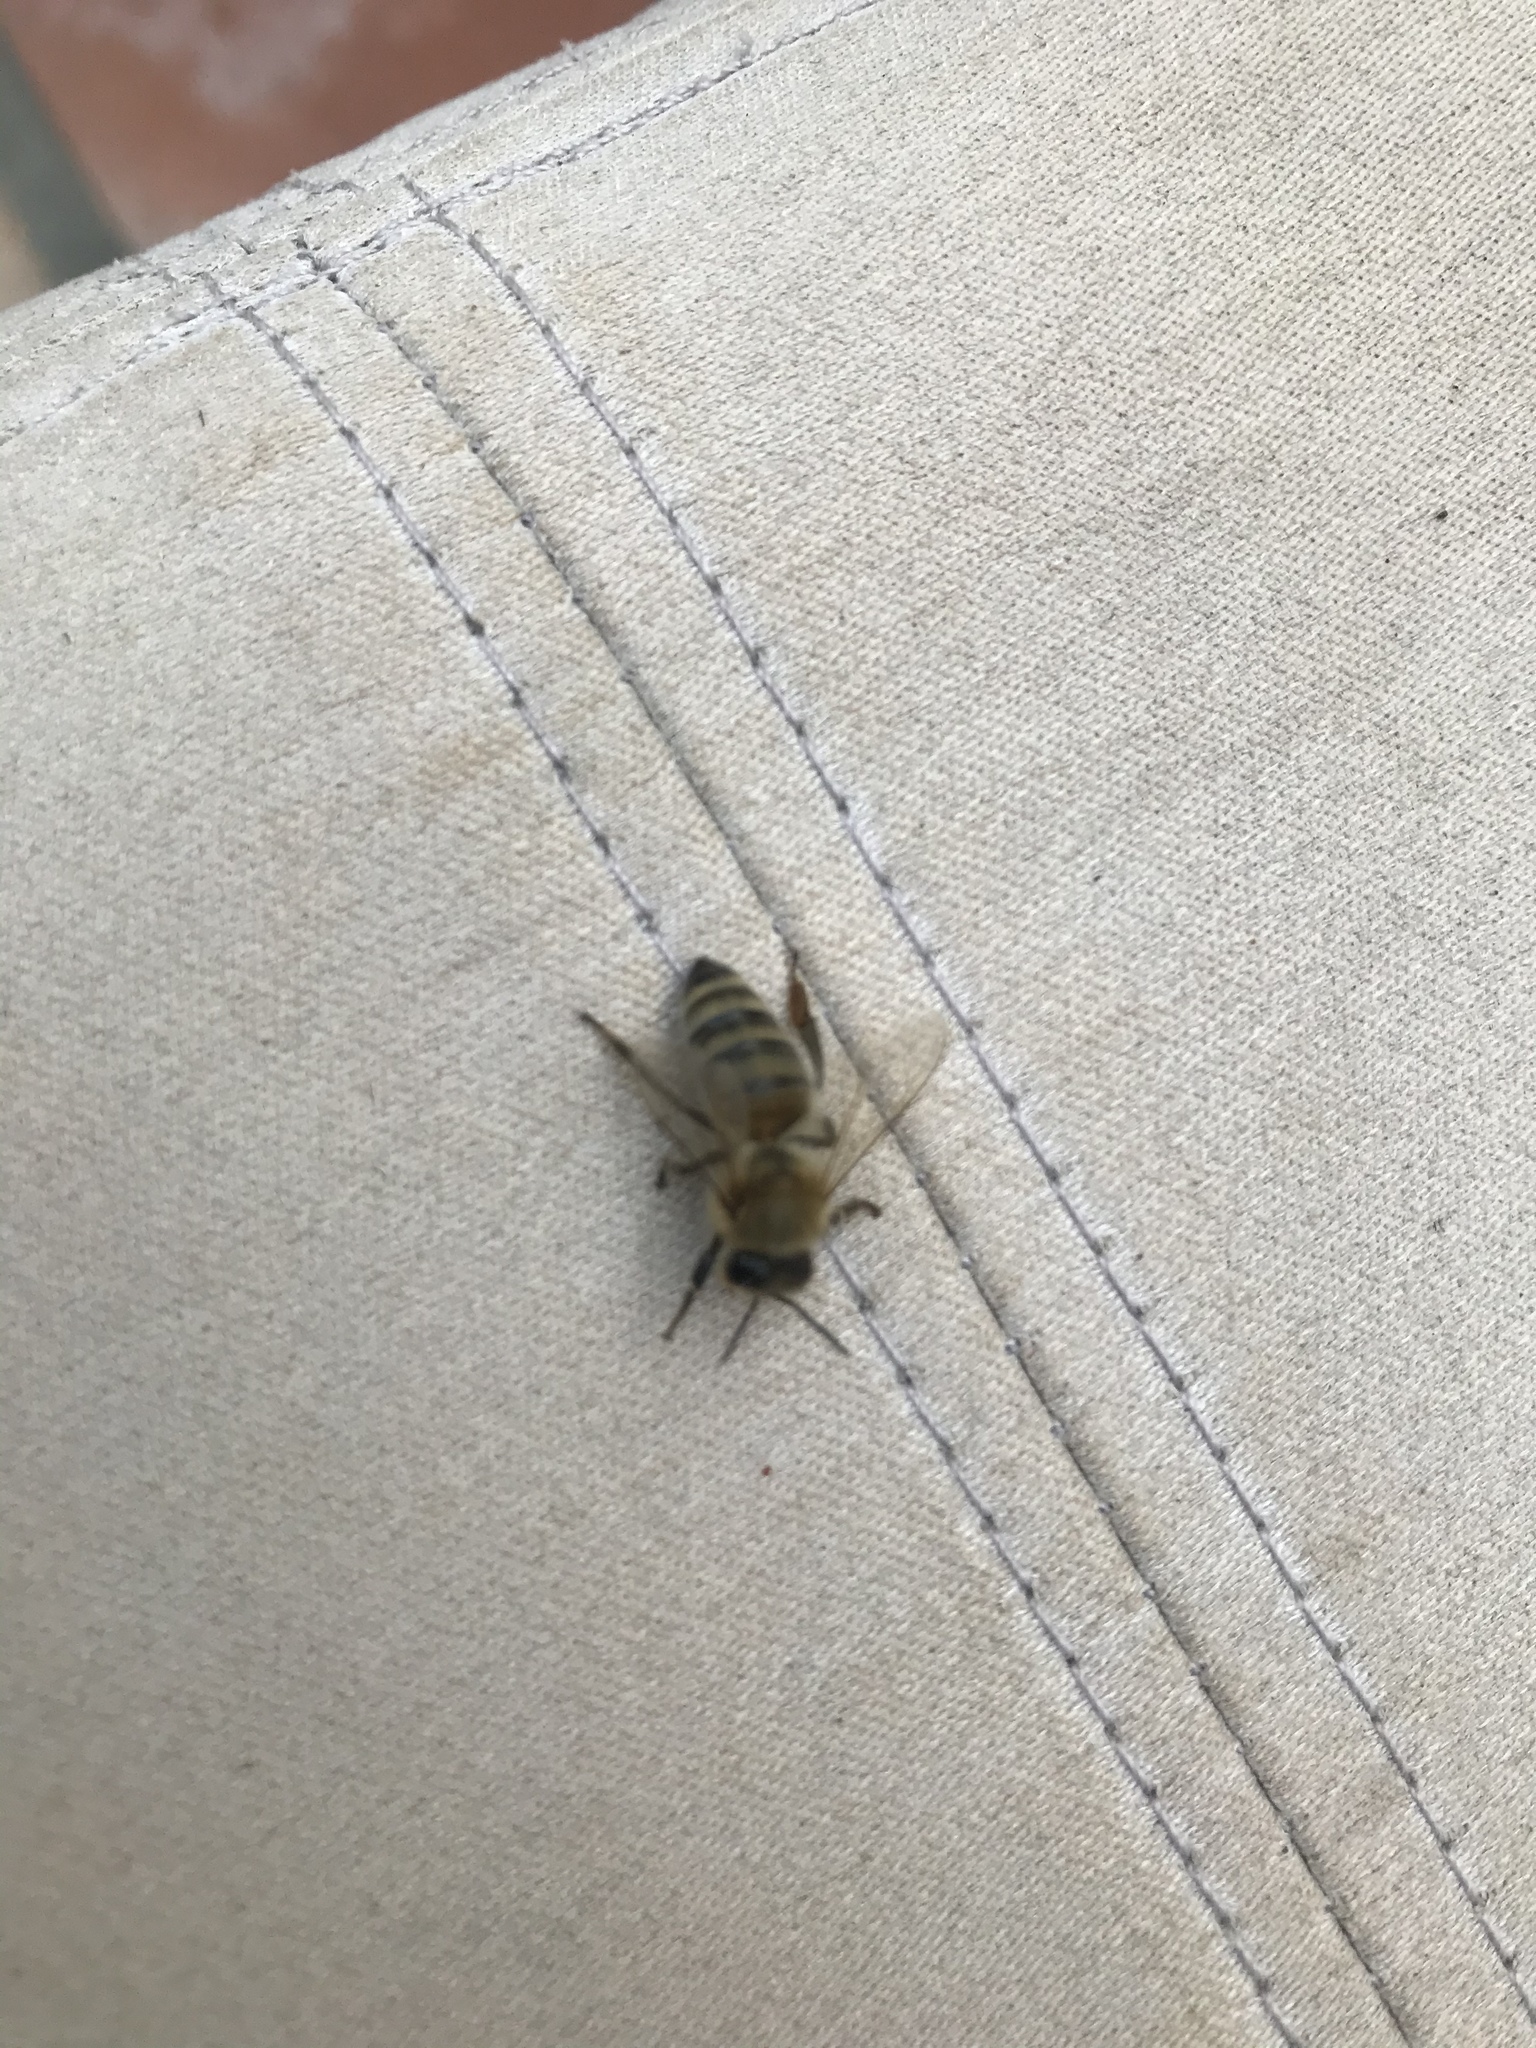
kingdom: Animalia
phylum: Arthropoda
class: Insecta
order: Hymenoptera
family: Apidae
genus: Apis
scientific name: Apis mellifera
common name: Honey bee
